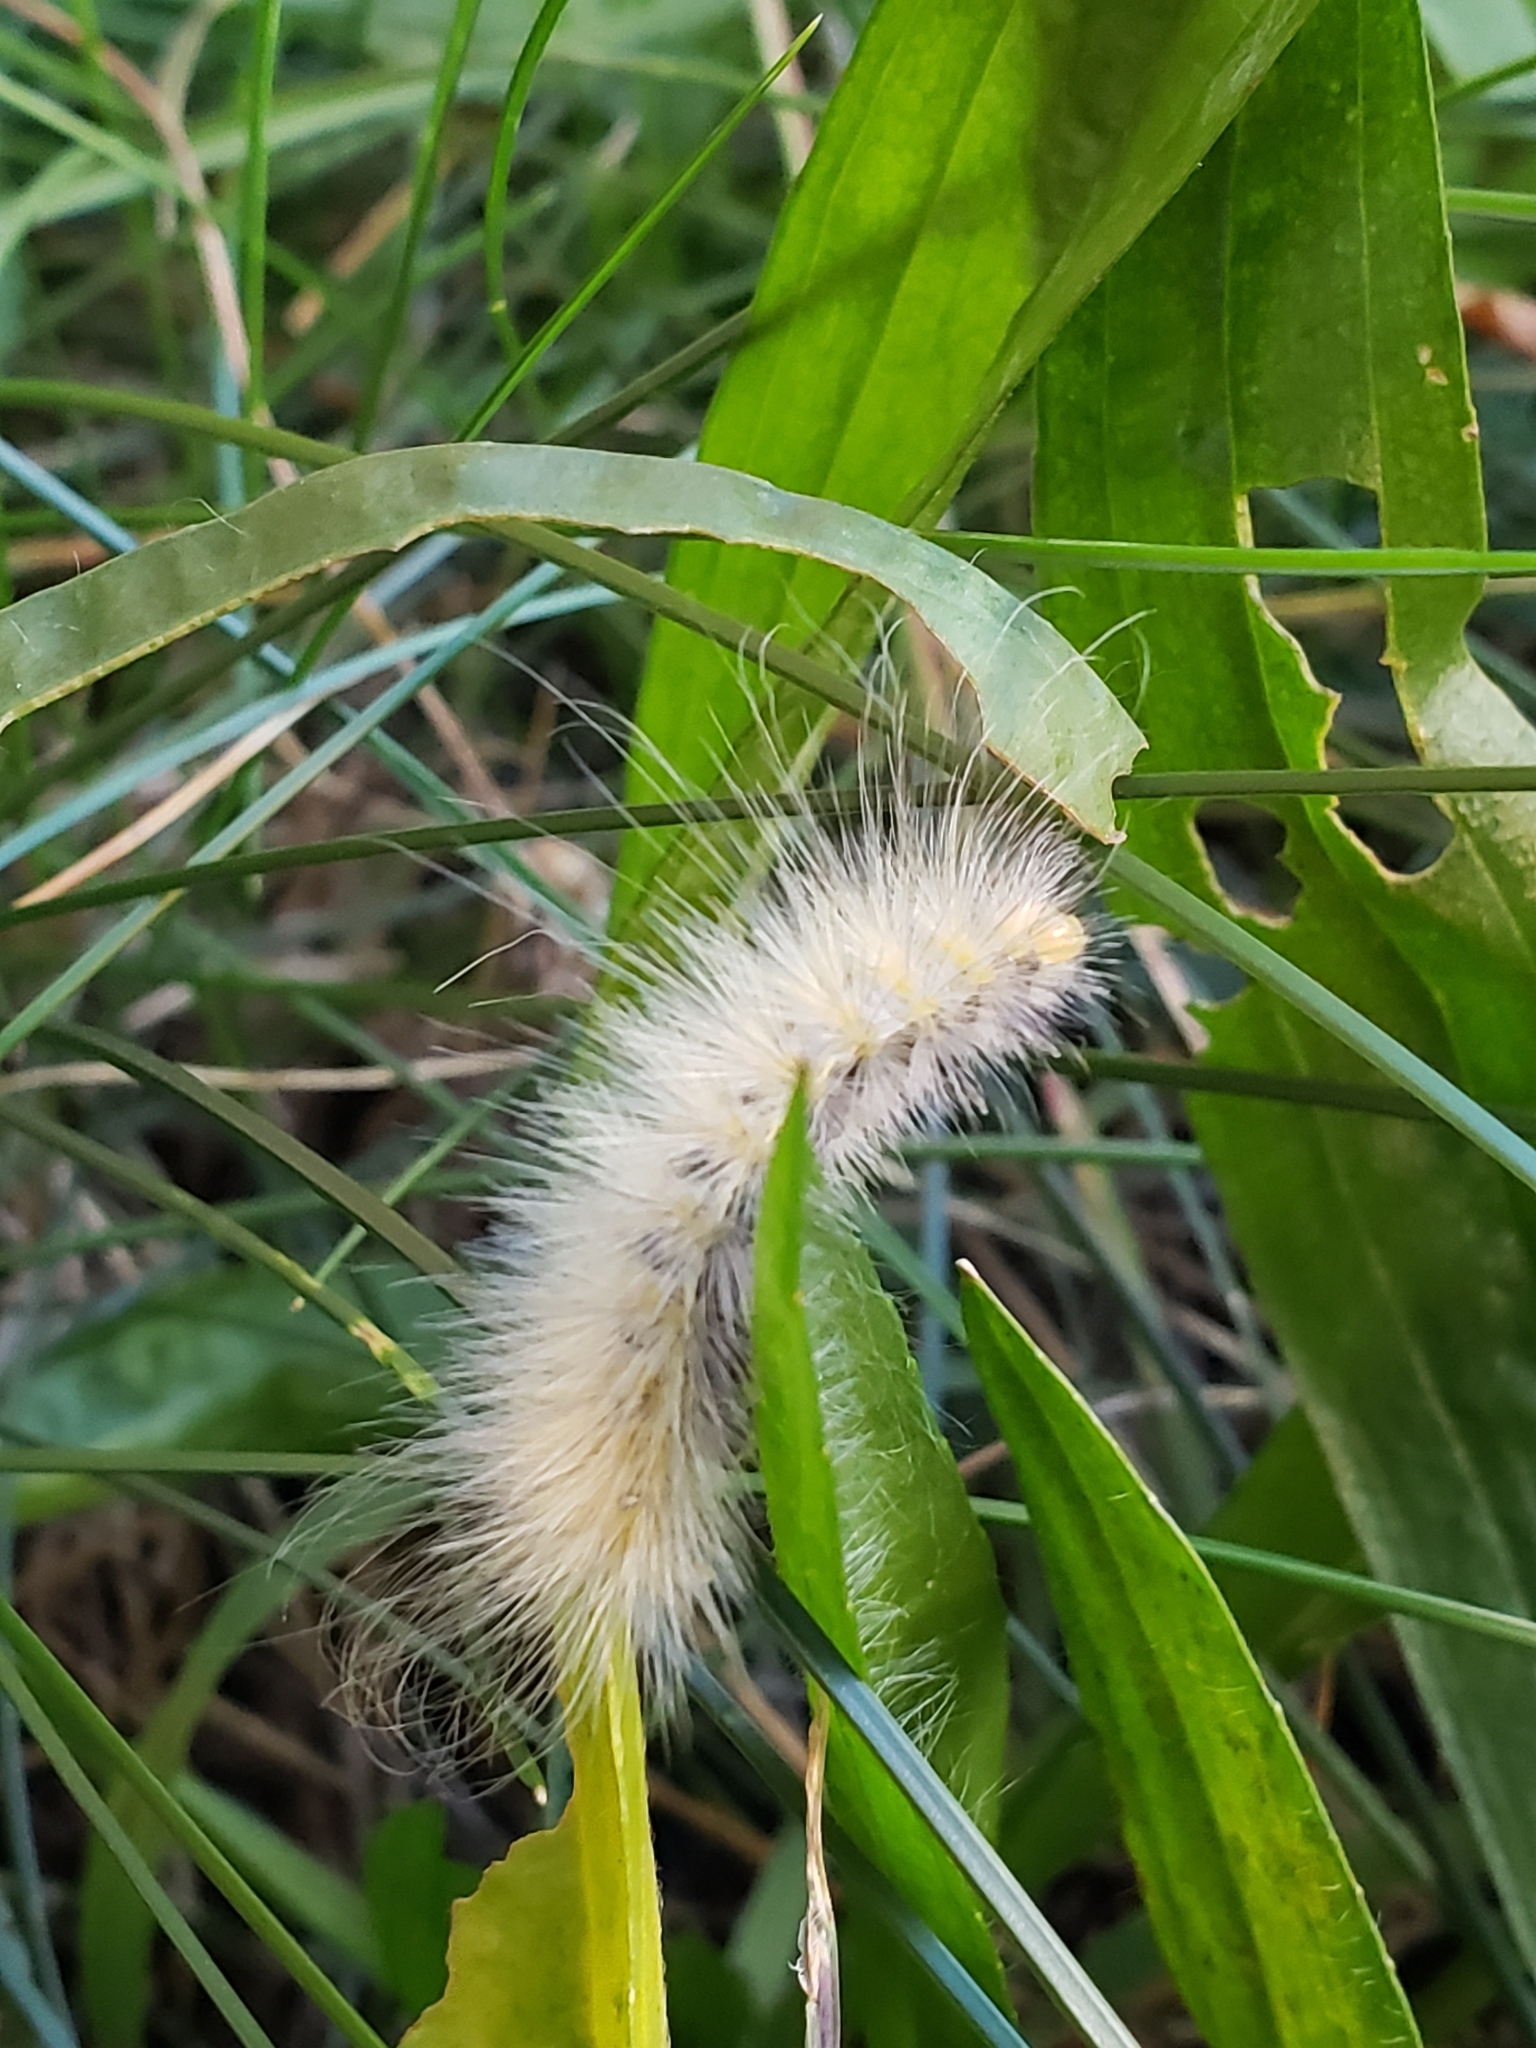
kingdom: Animalia
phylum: Arthropoda
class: Insecta
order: Lepidoptera
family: Erebidae
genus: Spilosoma
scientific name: Spilosoma virginica
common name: Virginia tiger moth
